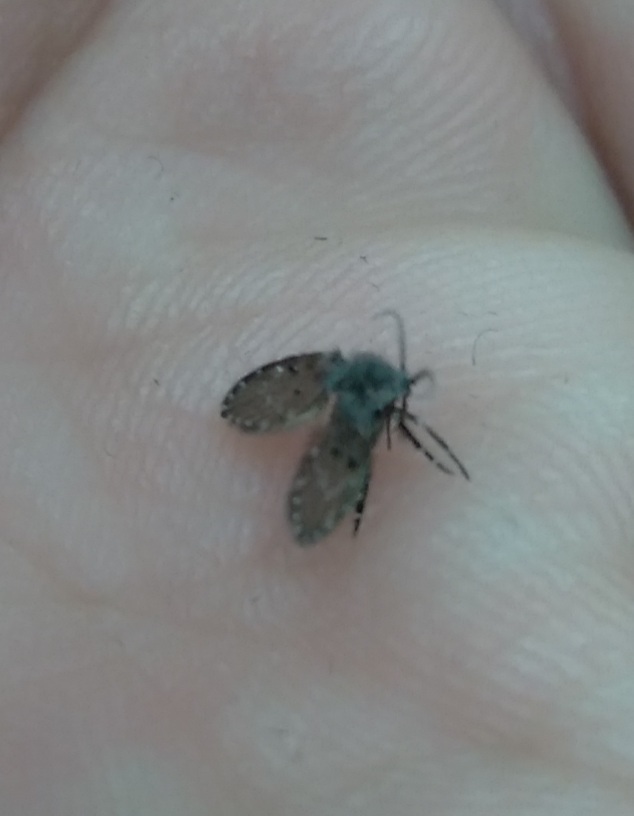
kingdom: Animalia
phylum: Arthropoda
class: Insecta
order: Diptera
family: Psychodidae
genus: Clogmia
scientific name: Clogmia albipunctatus
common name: White-spotted moth fly
